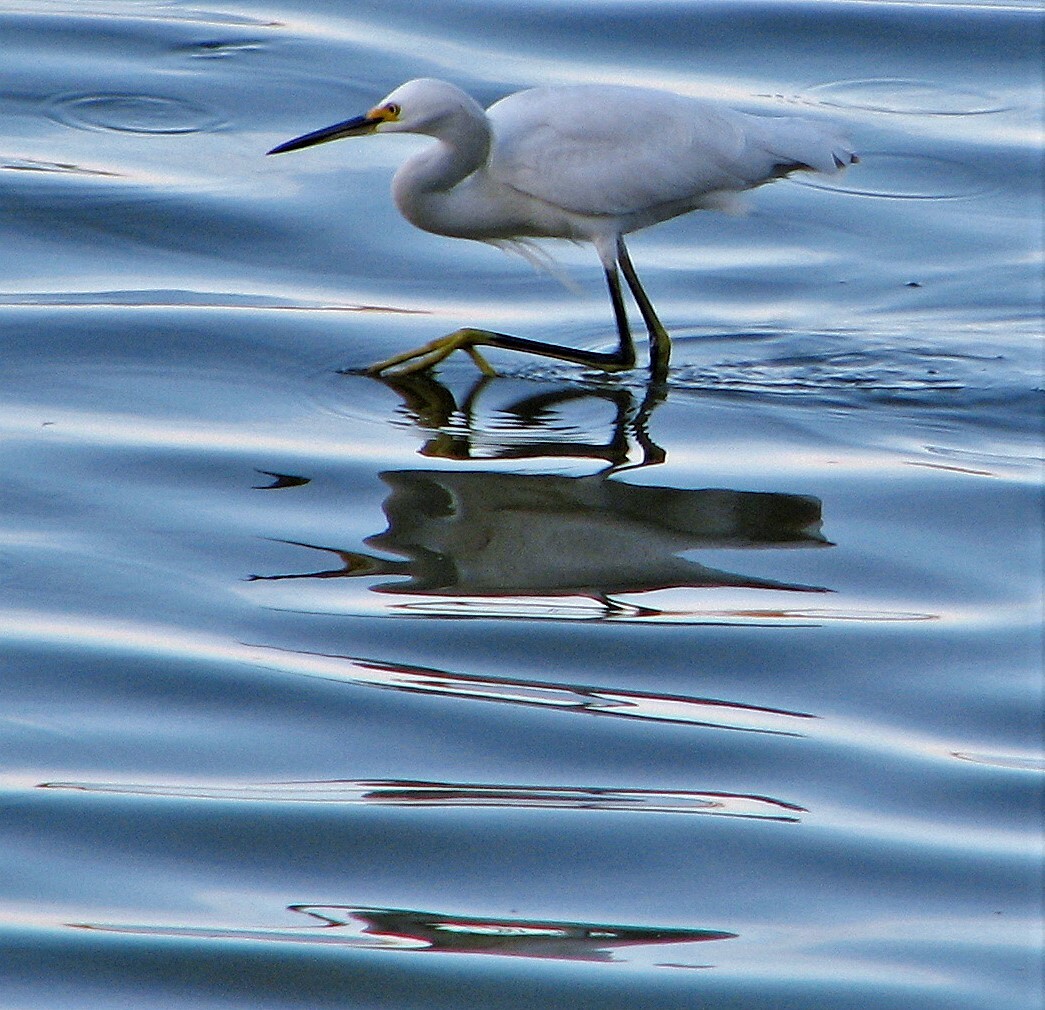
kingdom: Animalia
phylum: Chordata
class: Aves
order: Pelecaniformes
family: Ardeidae
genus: Egretta
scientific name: Egretta thula
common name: Snowy egret
